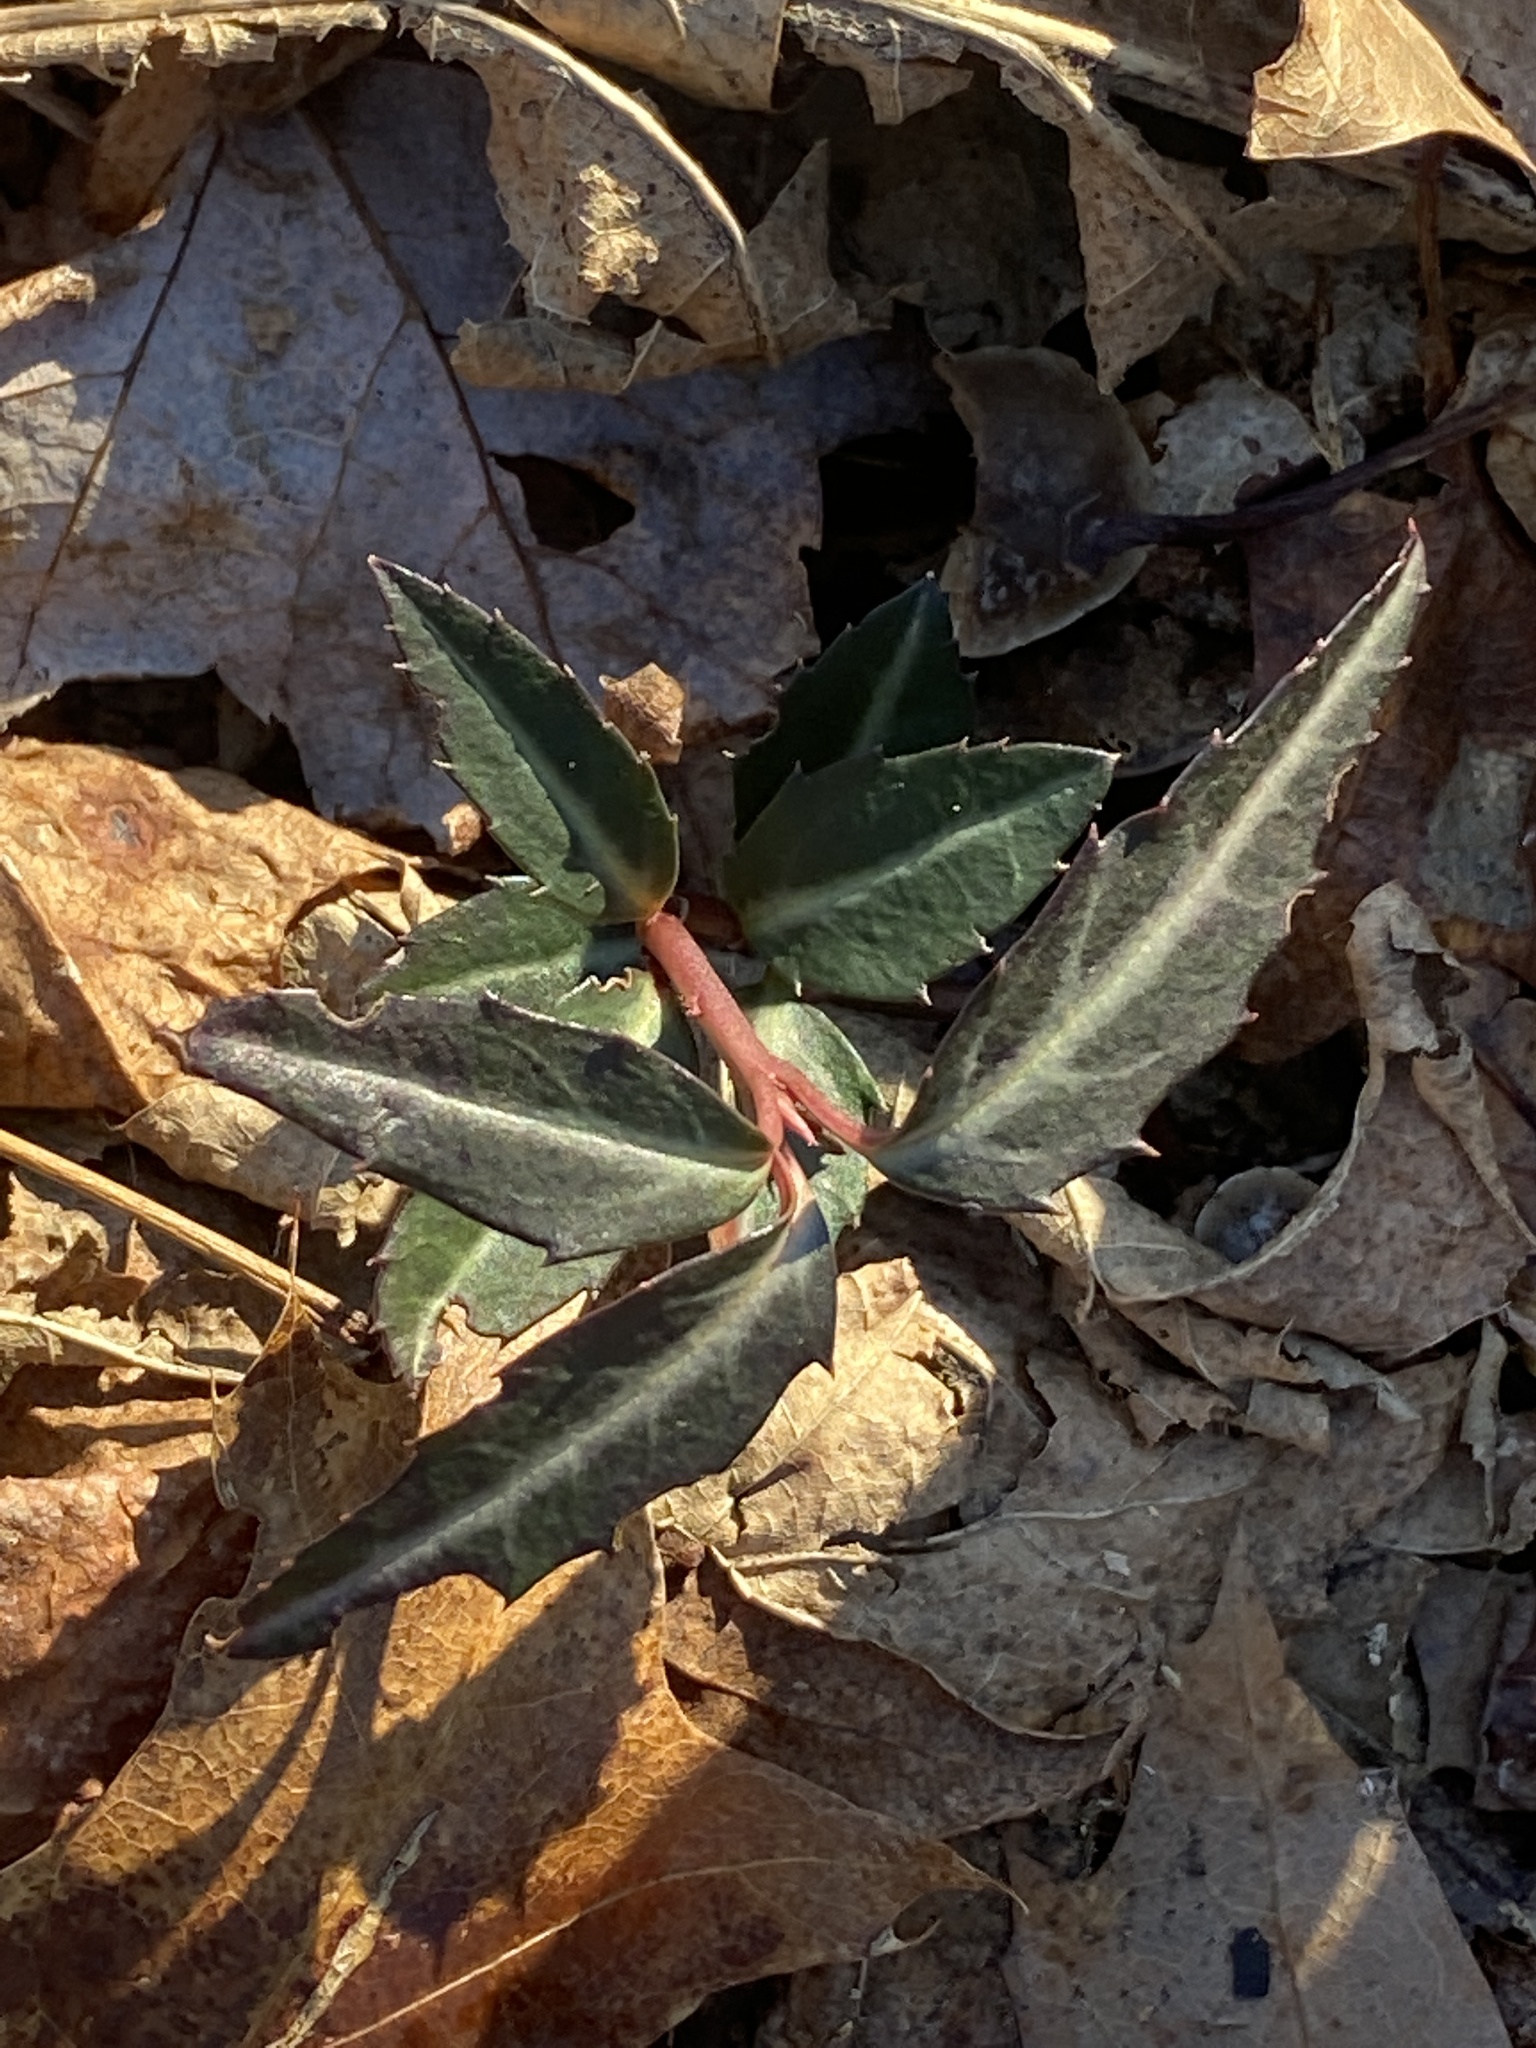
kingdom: Plantae
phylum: Tracheophyta
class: Magnoliopsida
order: Ericales
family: Ericaceae
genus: Chimaphila
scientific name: Chimaphila maculata
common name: Spotted pipsissewa
